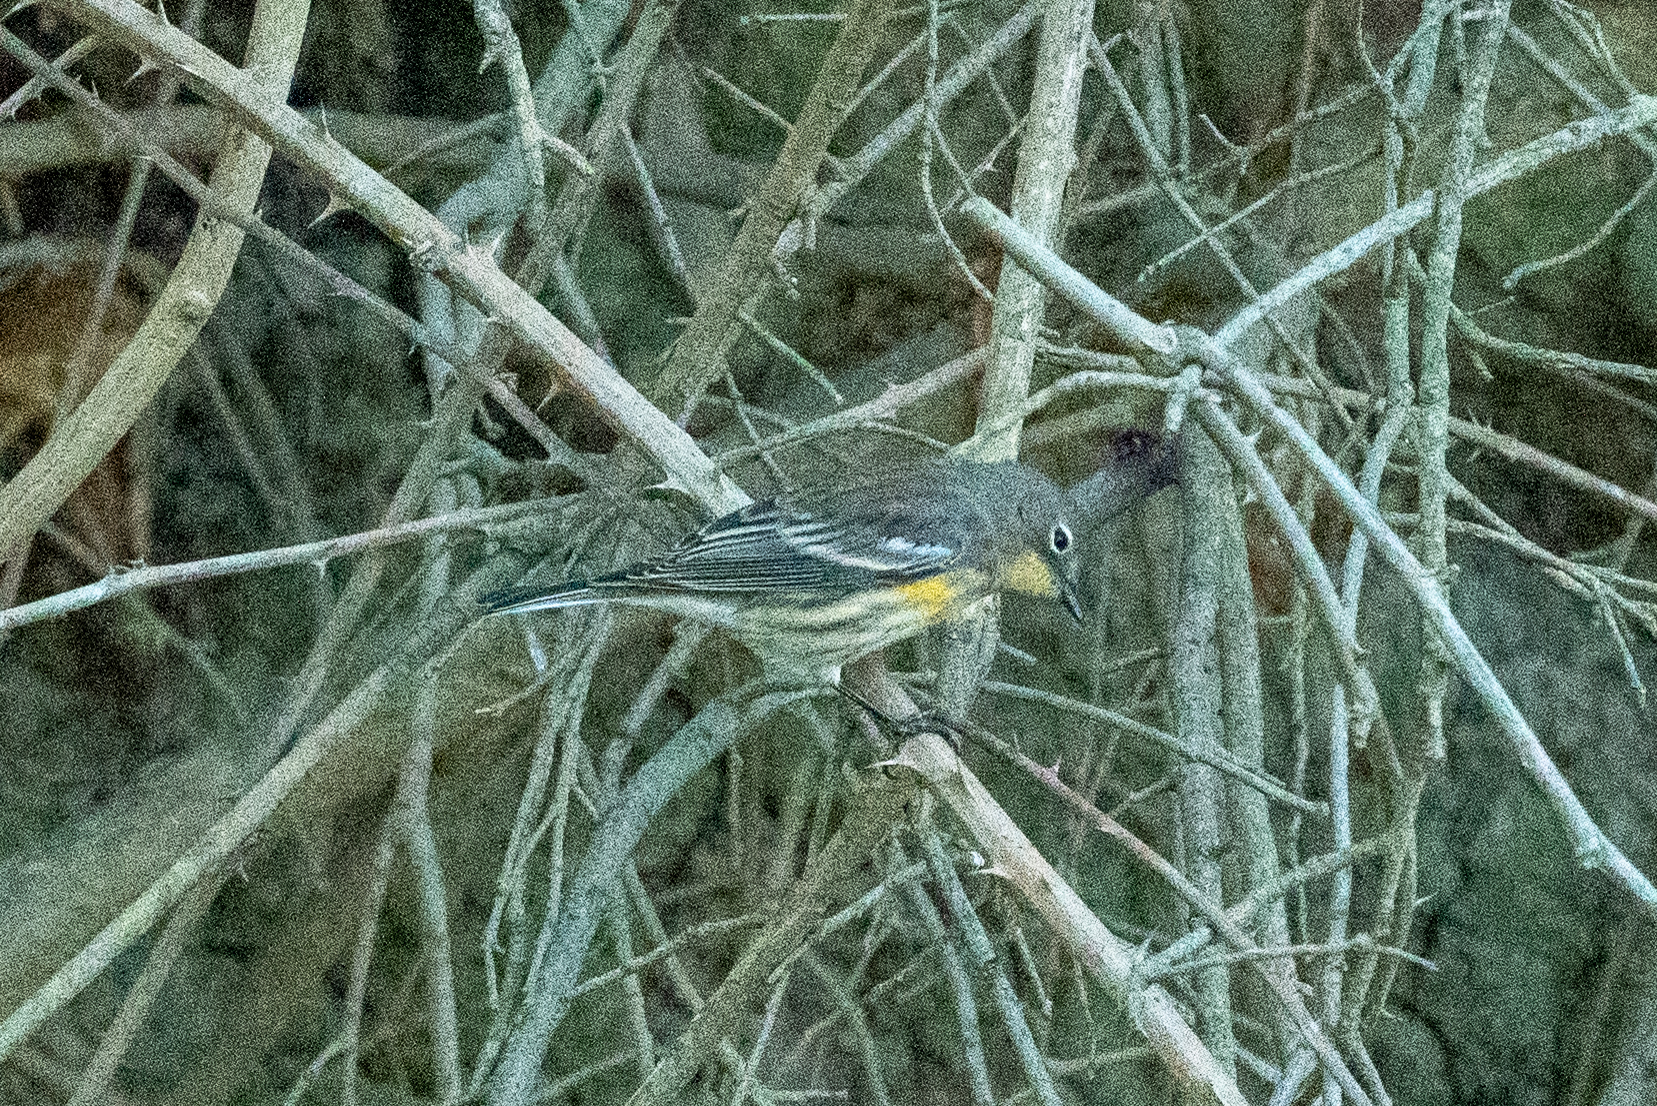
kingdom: Animalia
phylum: Chordata
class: Aves
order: Passeriformes
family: Parulidae
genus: Setophaga
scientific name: Setophaga coronata
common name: Myrtle warbler
